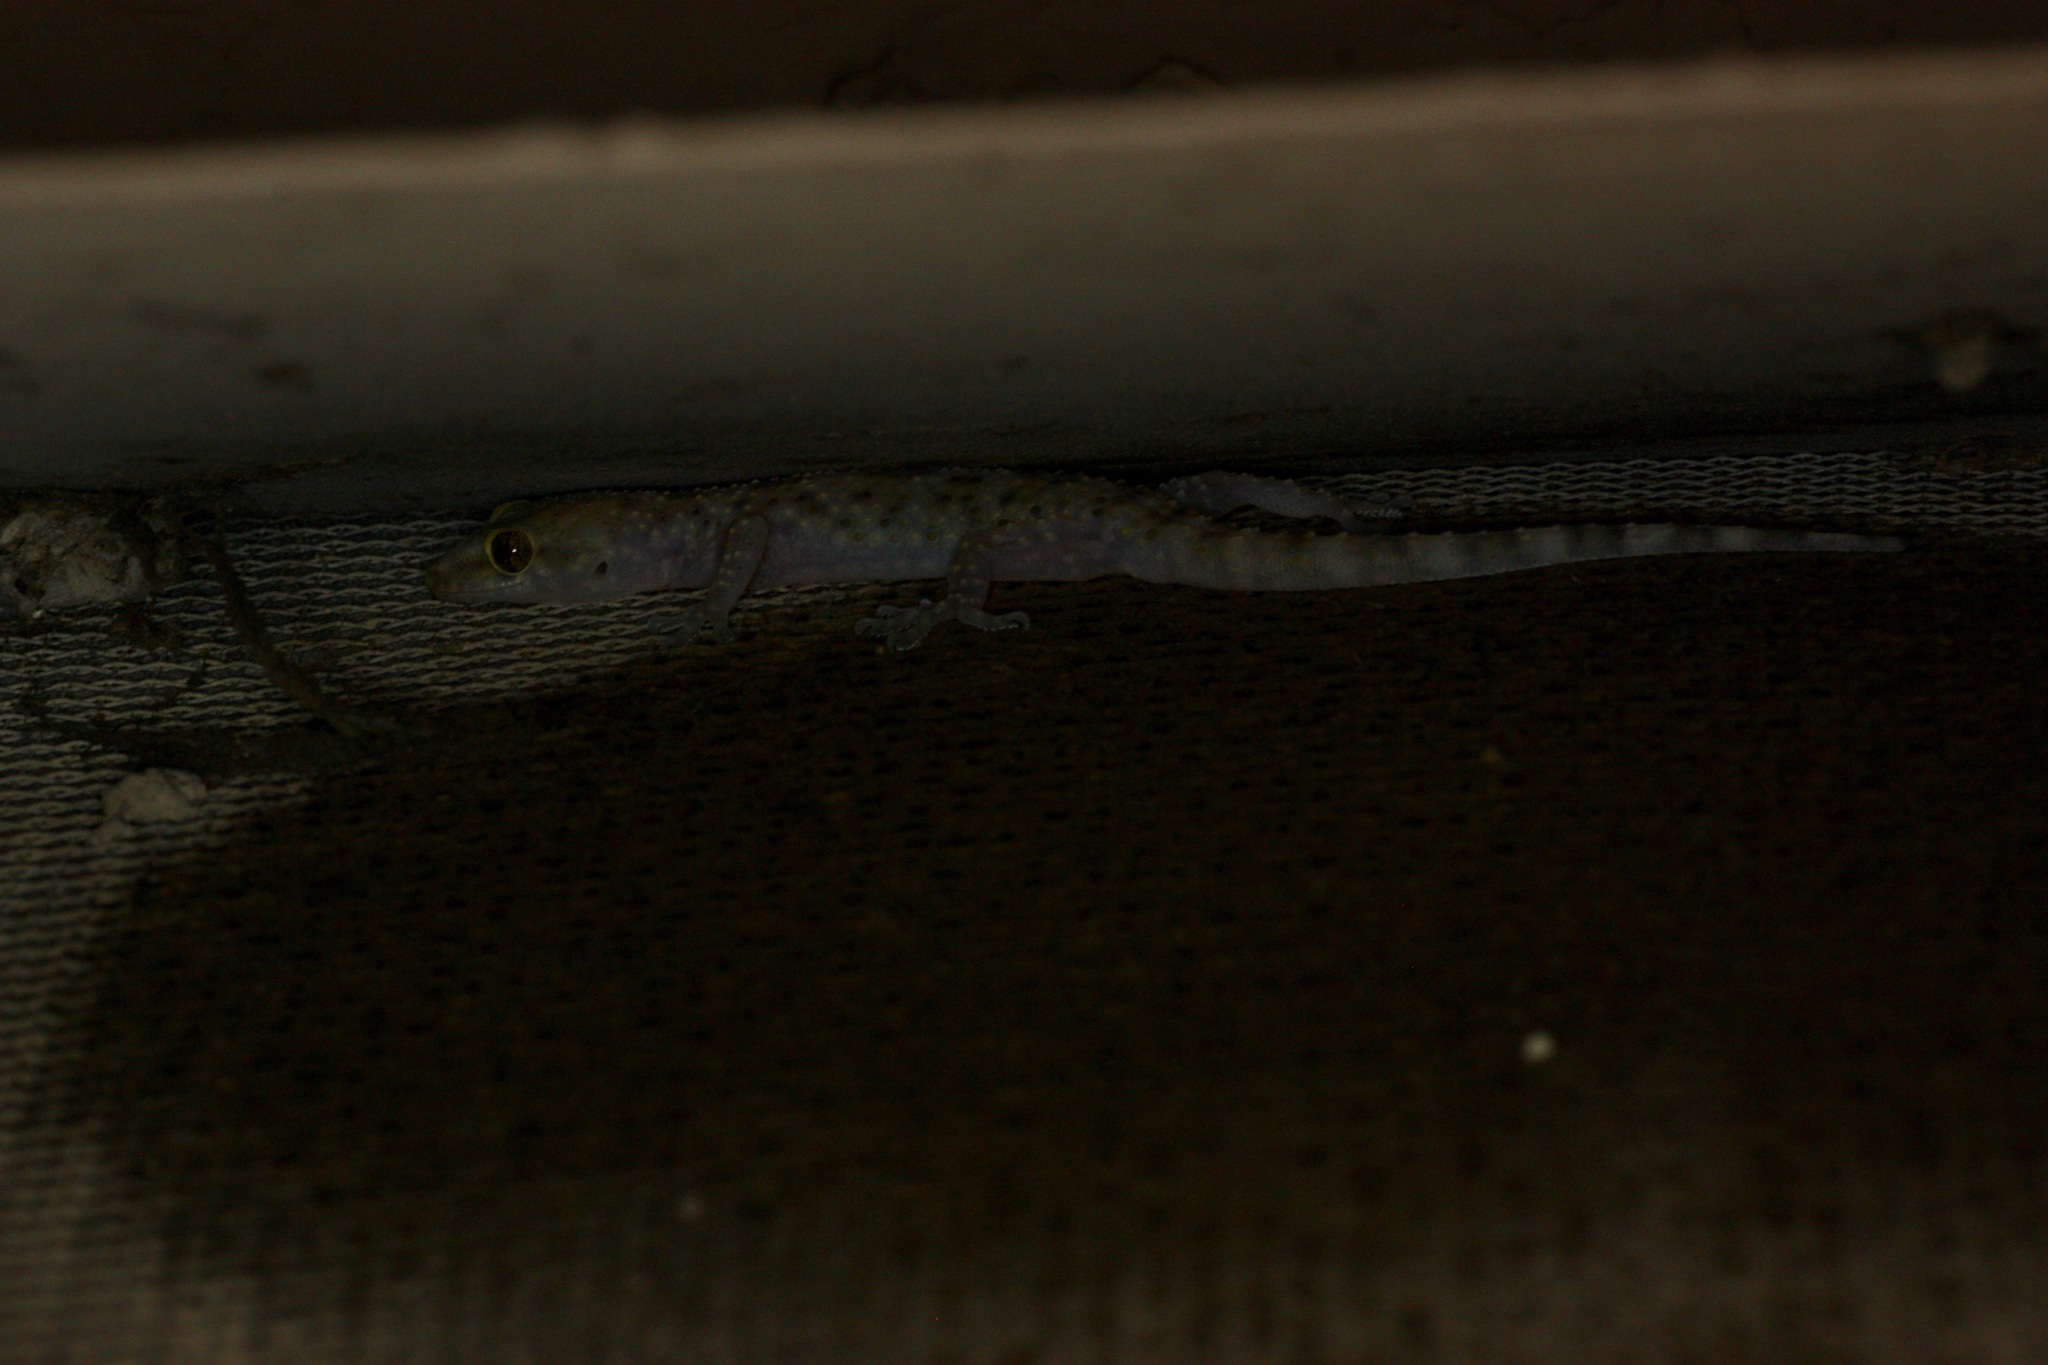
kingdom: Animalia
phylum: Chordata
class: Squamata
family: Gekkonidae
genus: Hemidactylus
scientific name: Hemidactylus turcicus
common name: Turkish gecko
